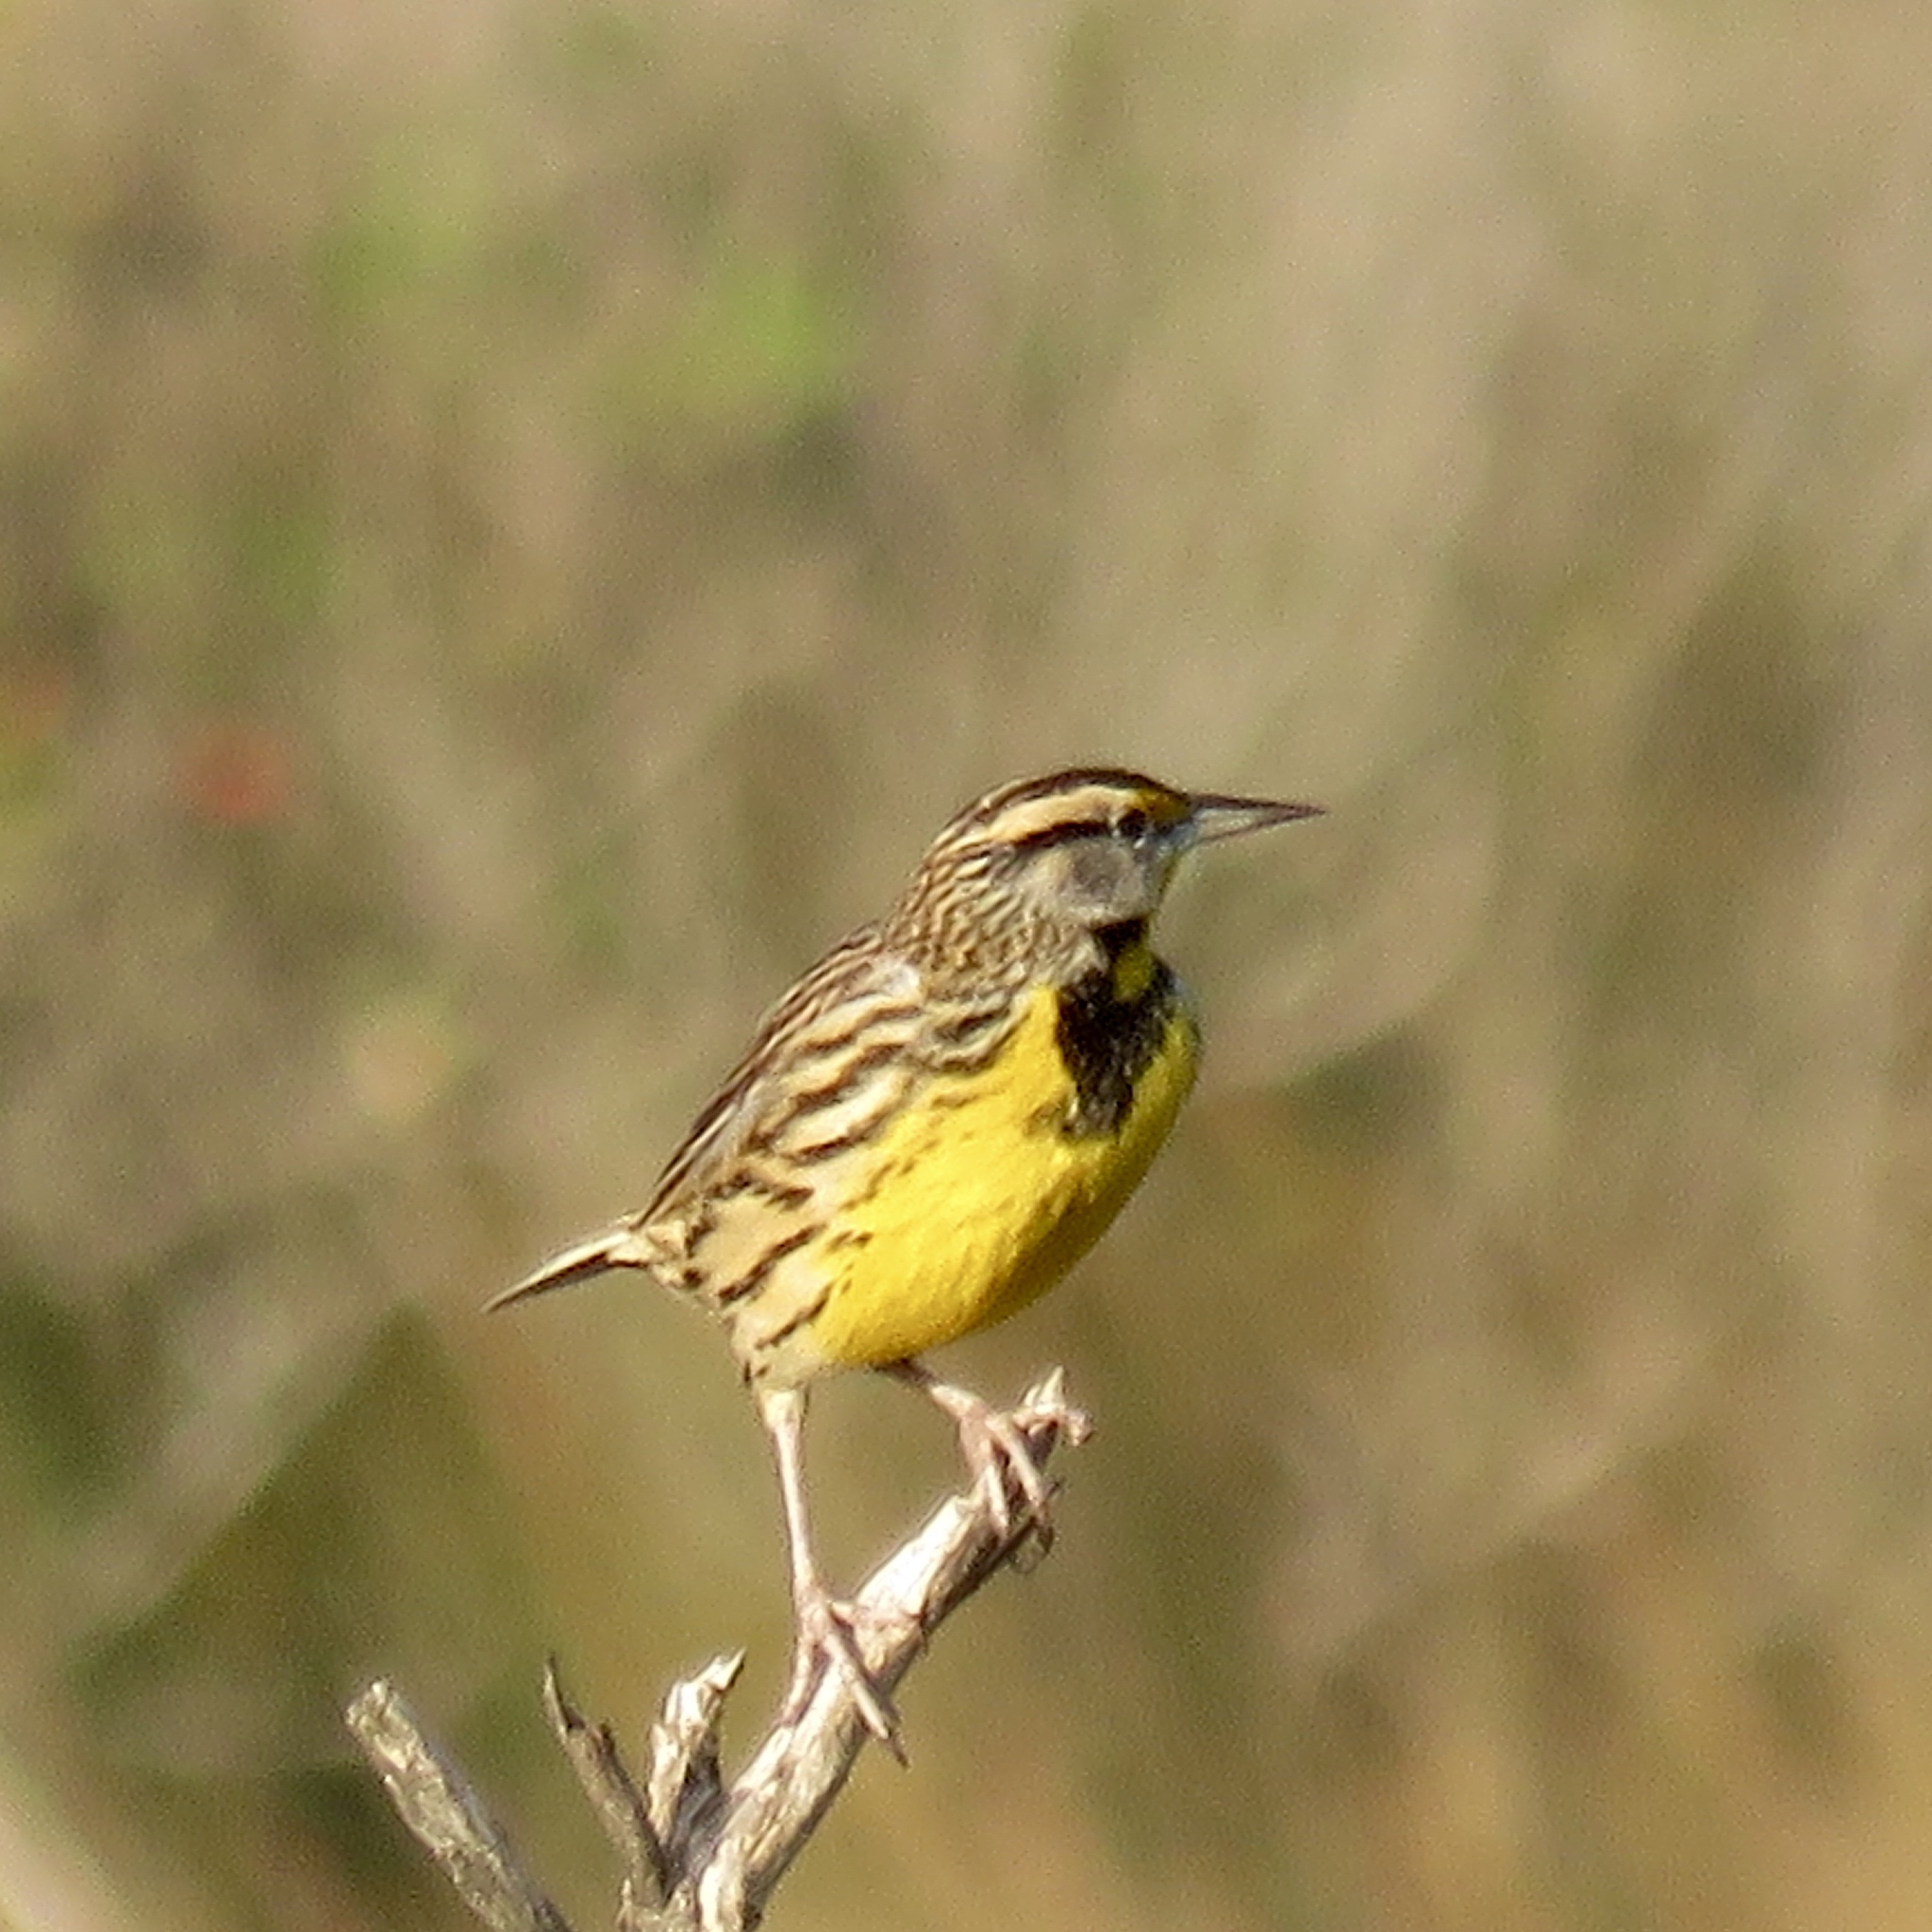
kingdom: Animalia
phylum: Chordata
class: Aves
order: Passeriformes
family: Icteridae
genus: Sturnella
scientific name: Sturnella magna
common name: Eastern meadowlark
